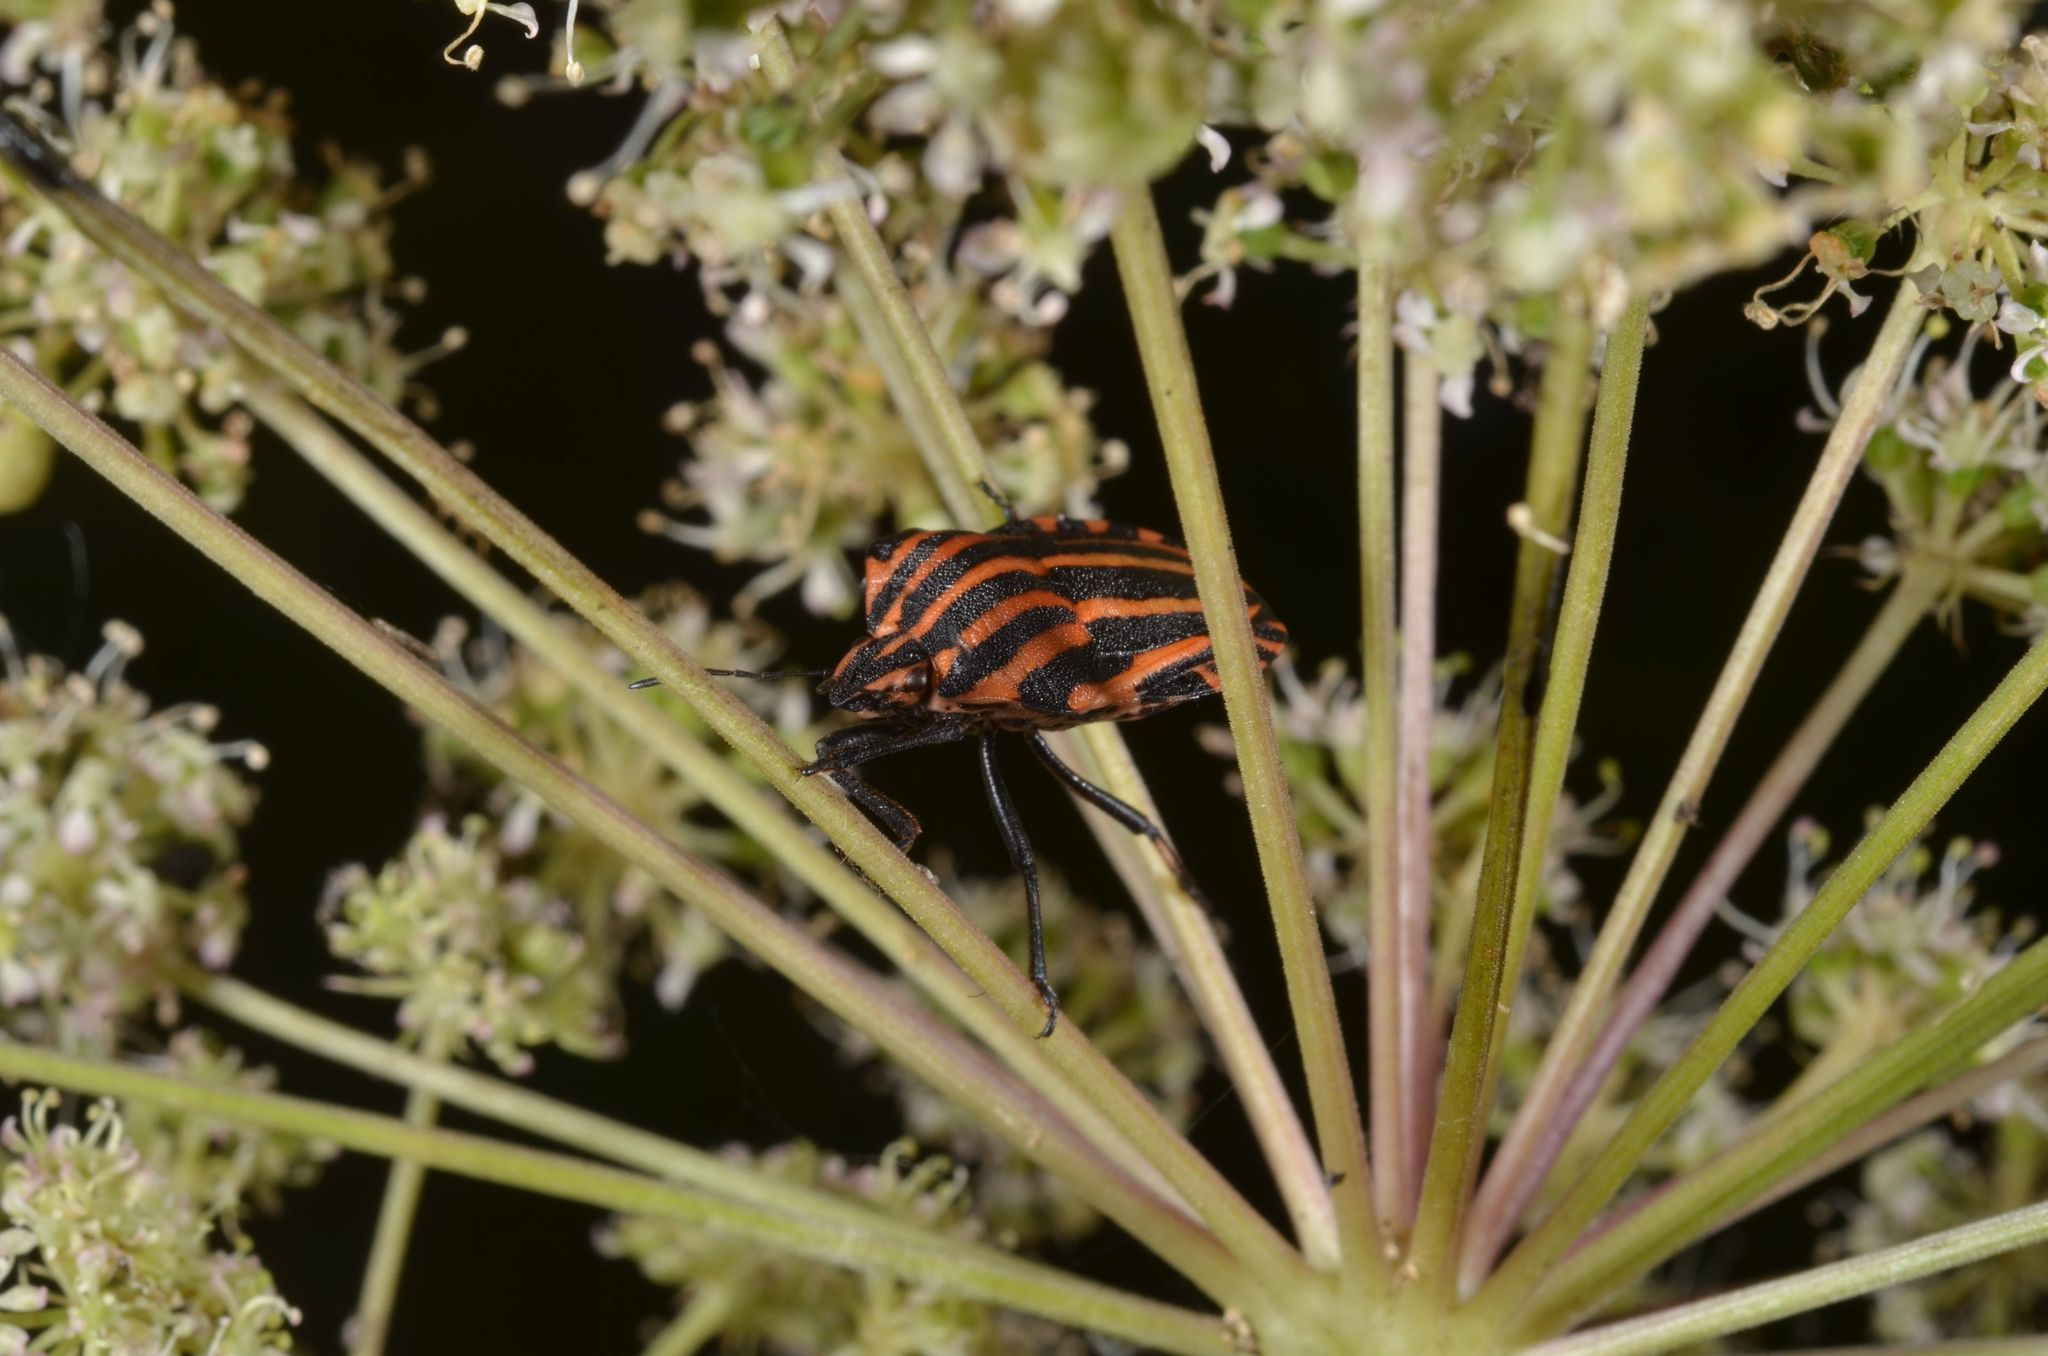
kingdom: Animalia
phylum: Arthropoda
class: Insecta
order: Hemiptera
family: Pentatomidae
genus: Graphosoma
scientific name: Graphosoma italicum
